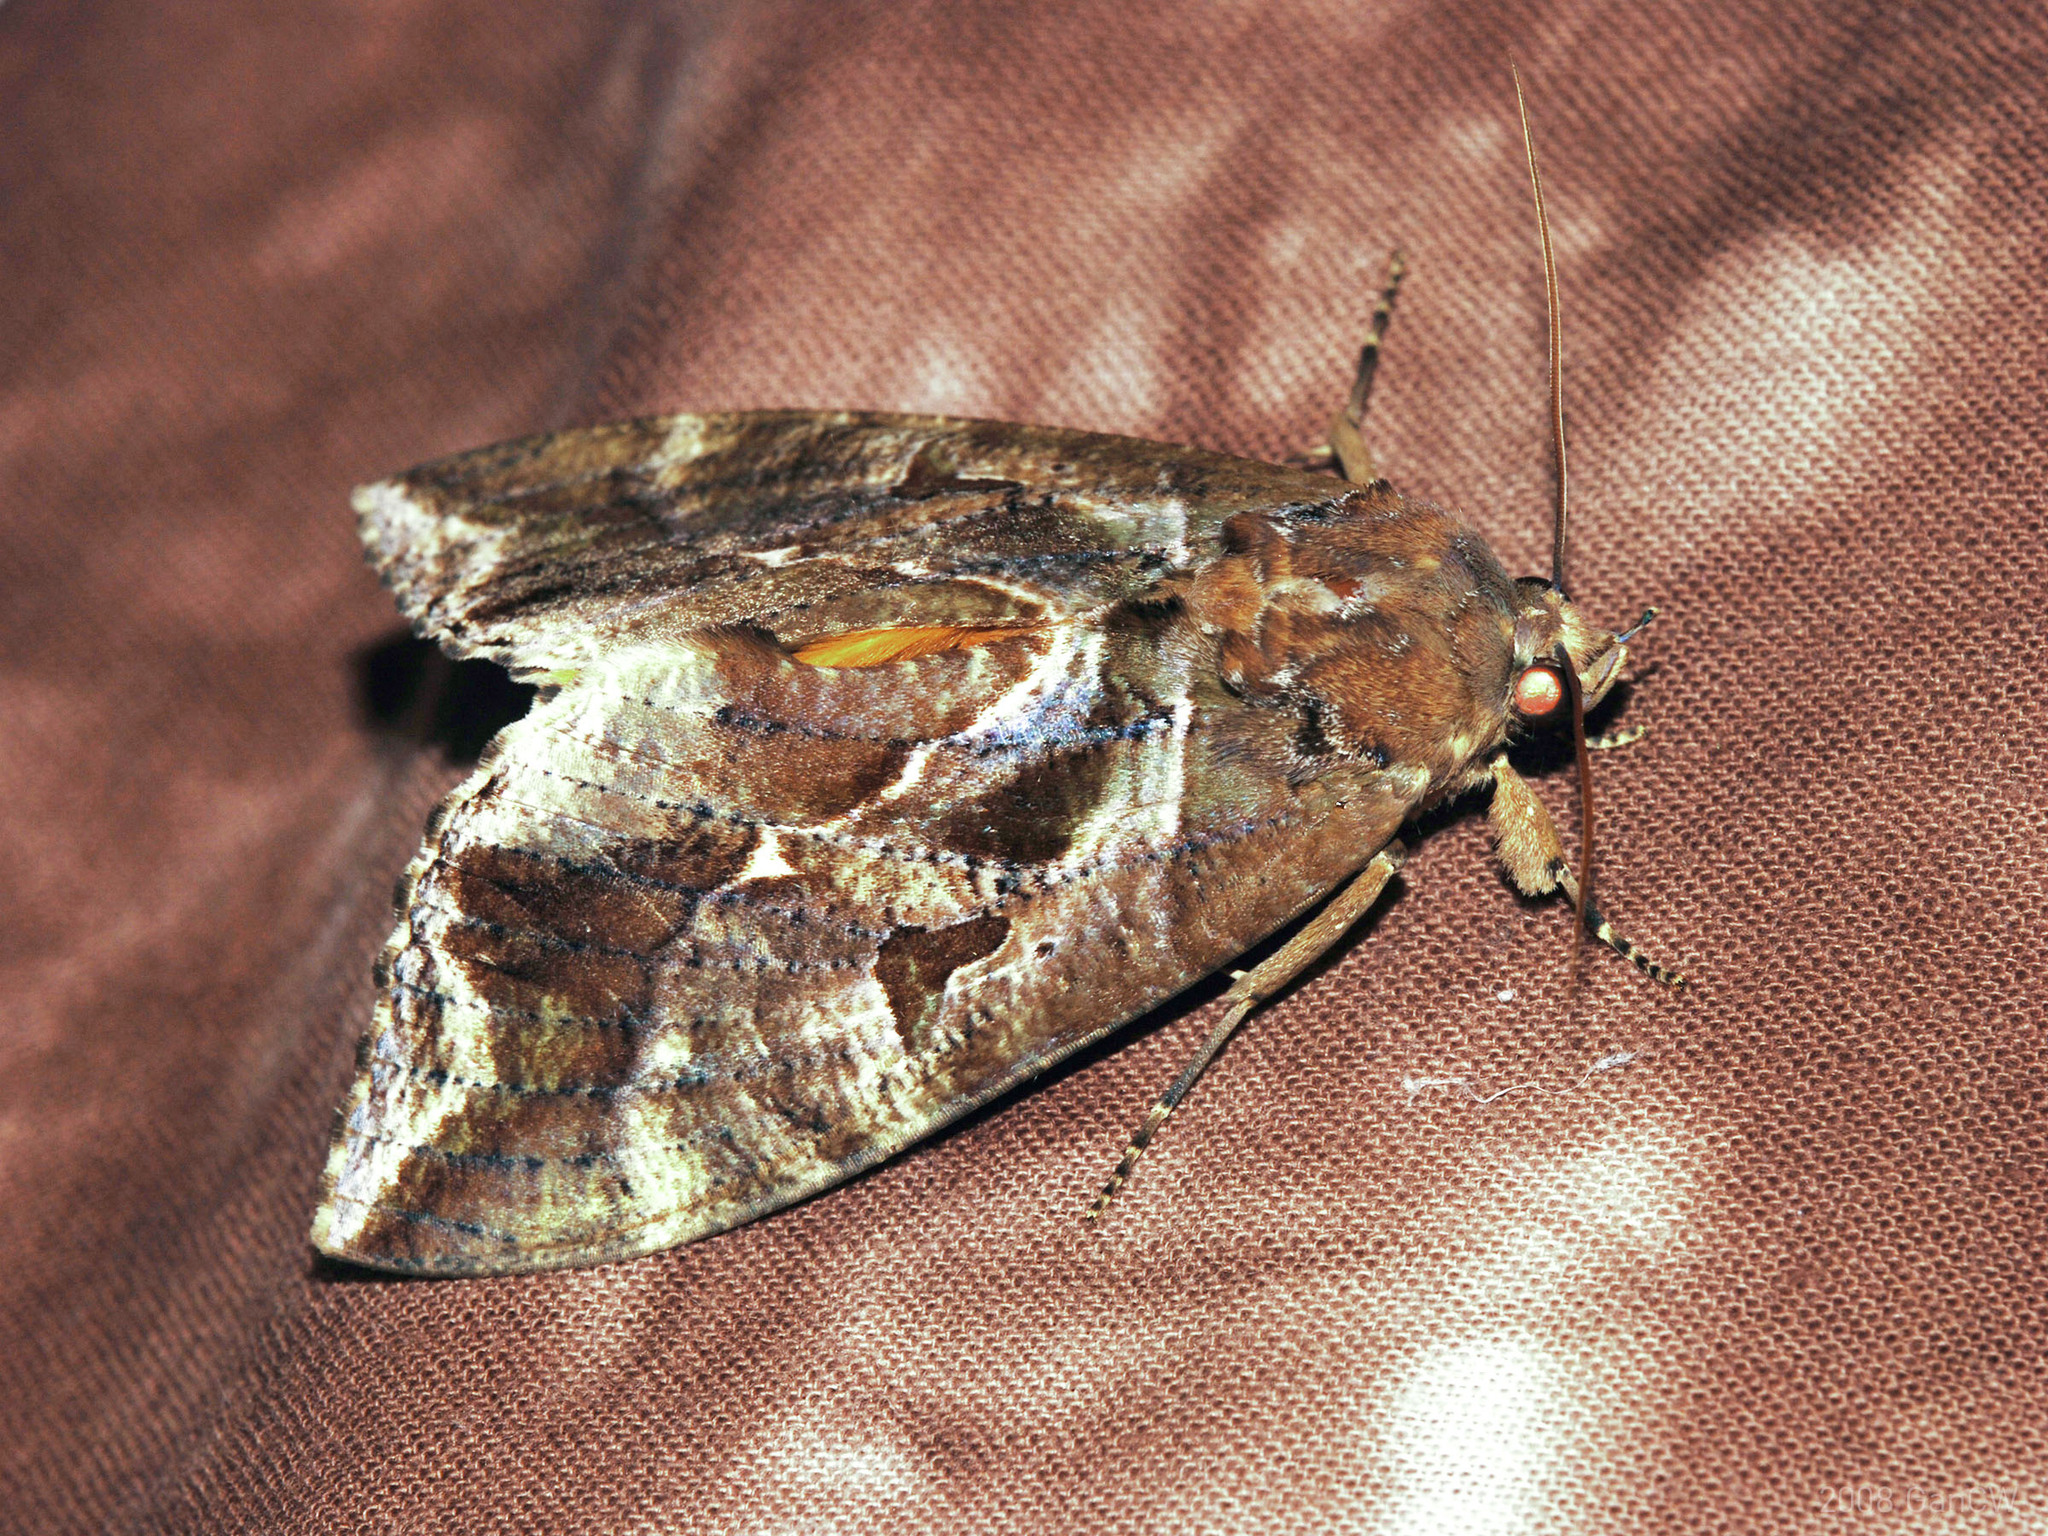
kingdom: Animalia
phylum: Arthropoda
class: Insecta
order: Lepidoptera
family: Erebidae
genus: Eudocima
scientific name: Eudocima phalonia
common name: Wasp
